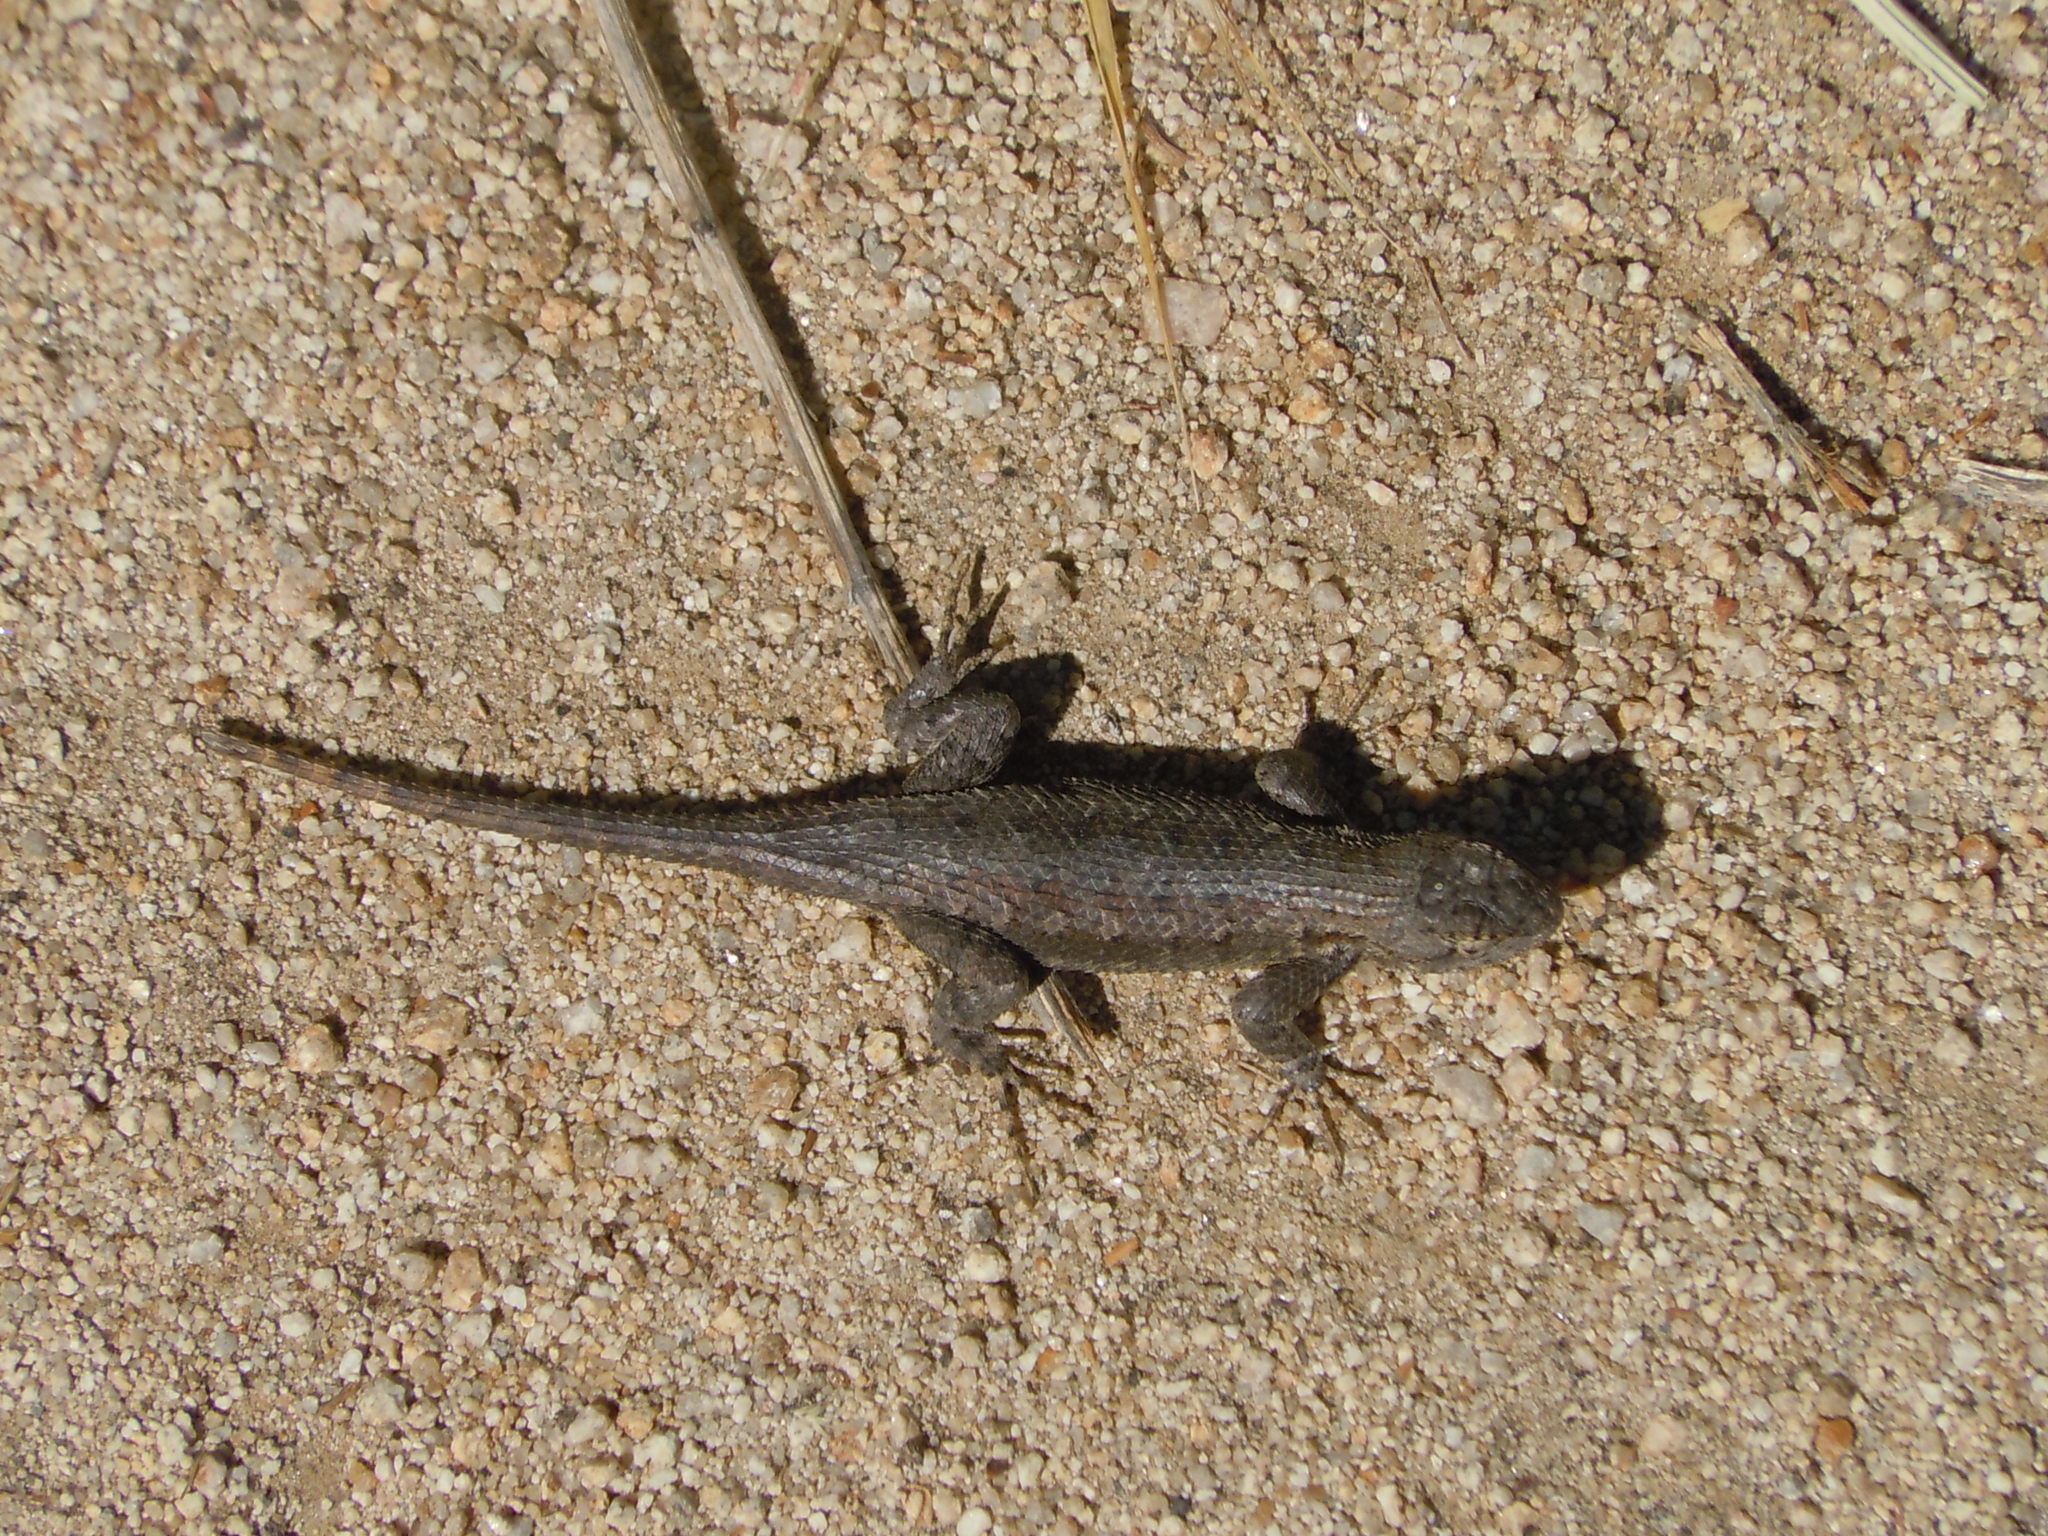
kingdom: Animalia
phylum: Chordata
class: Squamata
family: Phrynosomatidae
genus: Sceloporus
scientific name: Sceloporus occidentalis
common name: Western fence lizard
